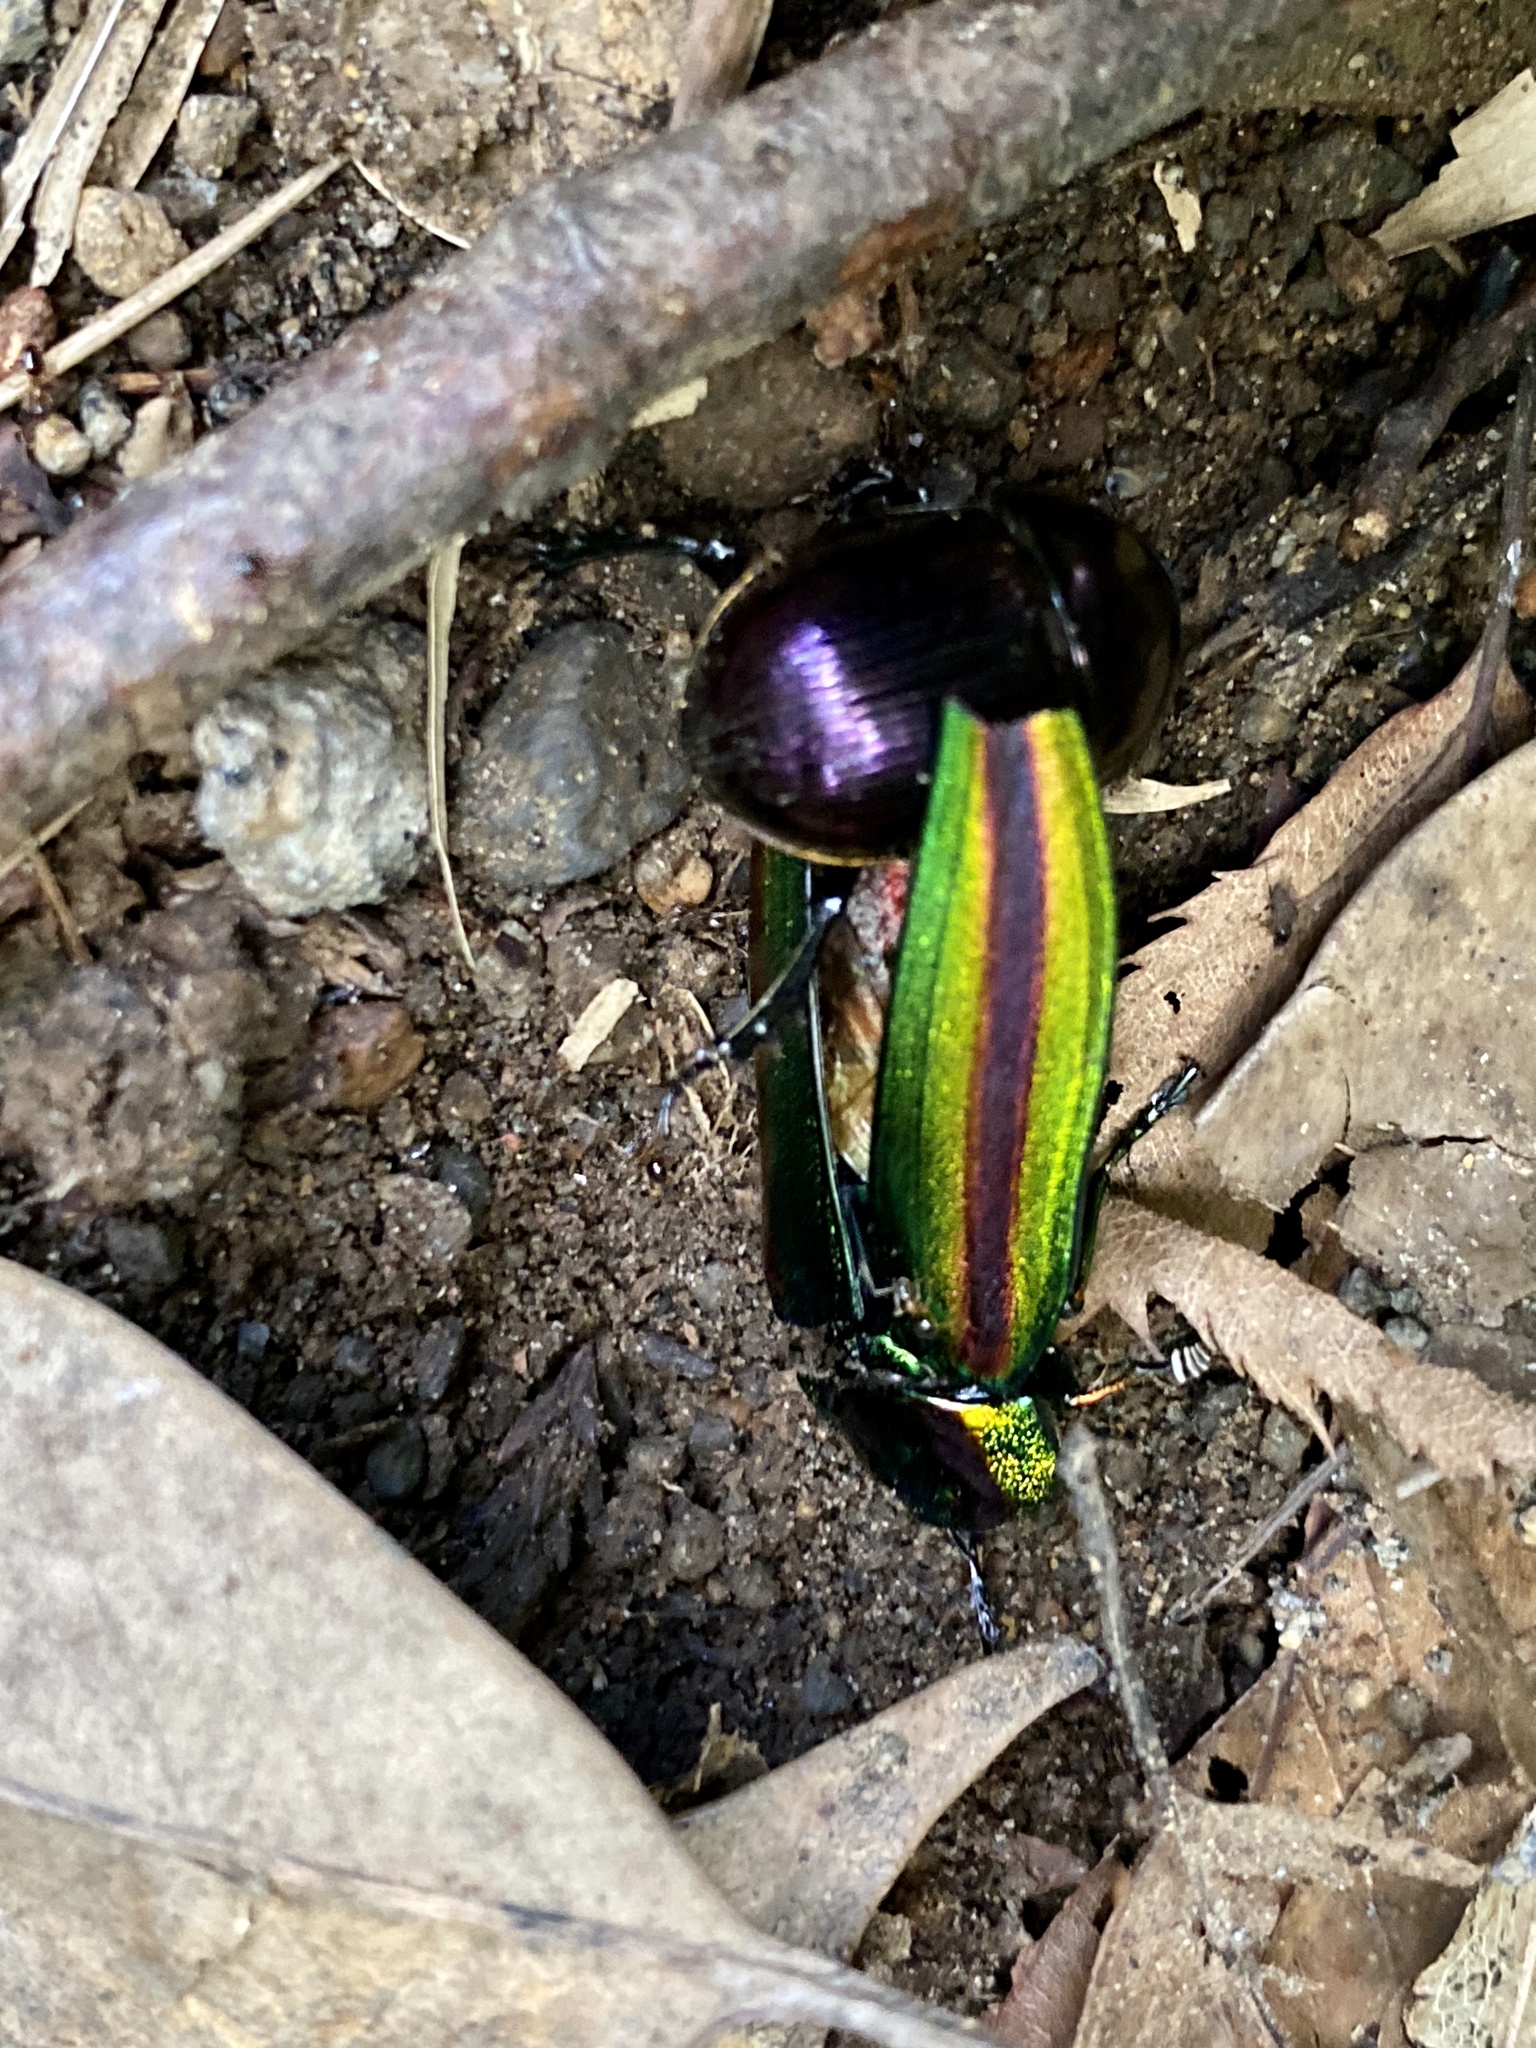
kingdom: Animalia
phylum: Arthropoda
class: Insecta
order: Coleoptera
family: Buprestidae
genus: Chrysochroa
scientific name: Chrysochroa fulgidissima
